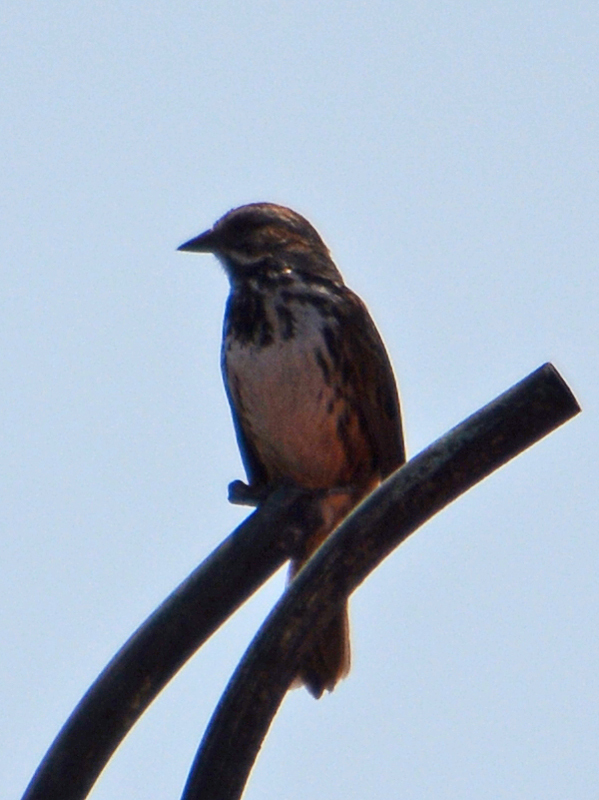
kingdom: Animalia
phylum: Chordata
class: Aves
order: Passeriformes
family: Passerellidae
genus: Melospiza
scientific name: Melospiza melodia
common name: Song sparrow
